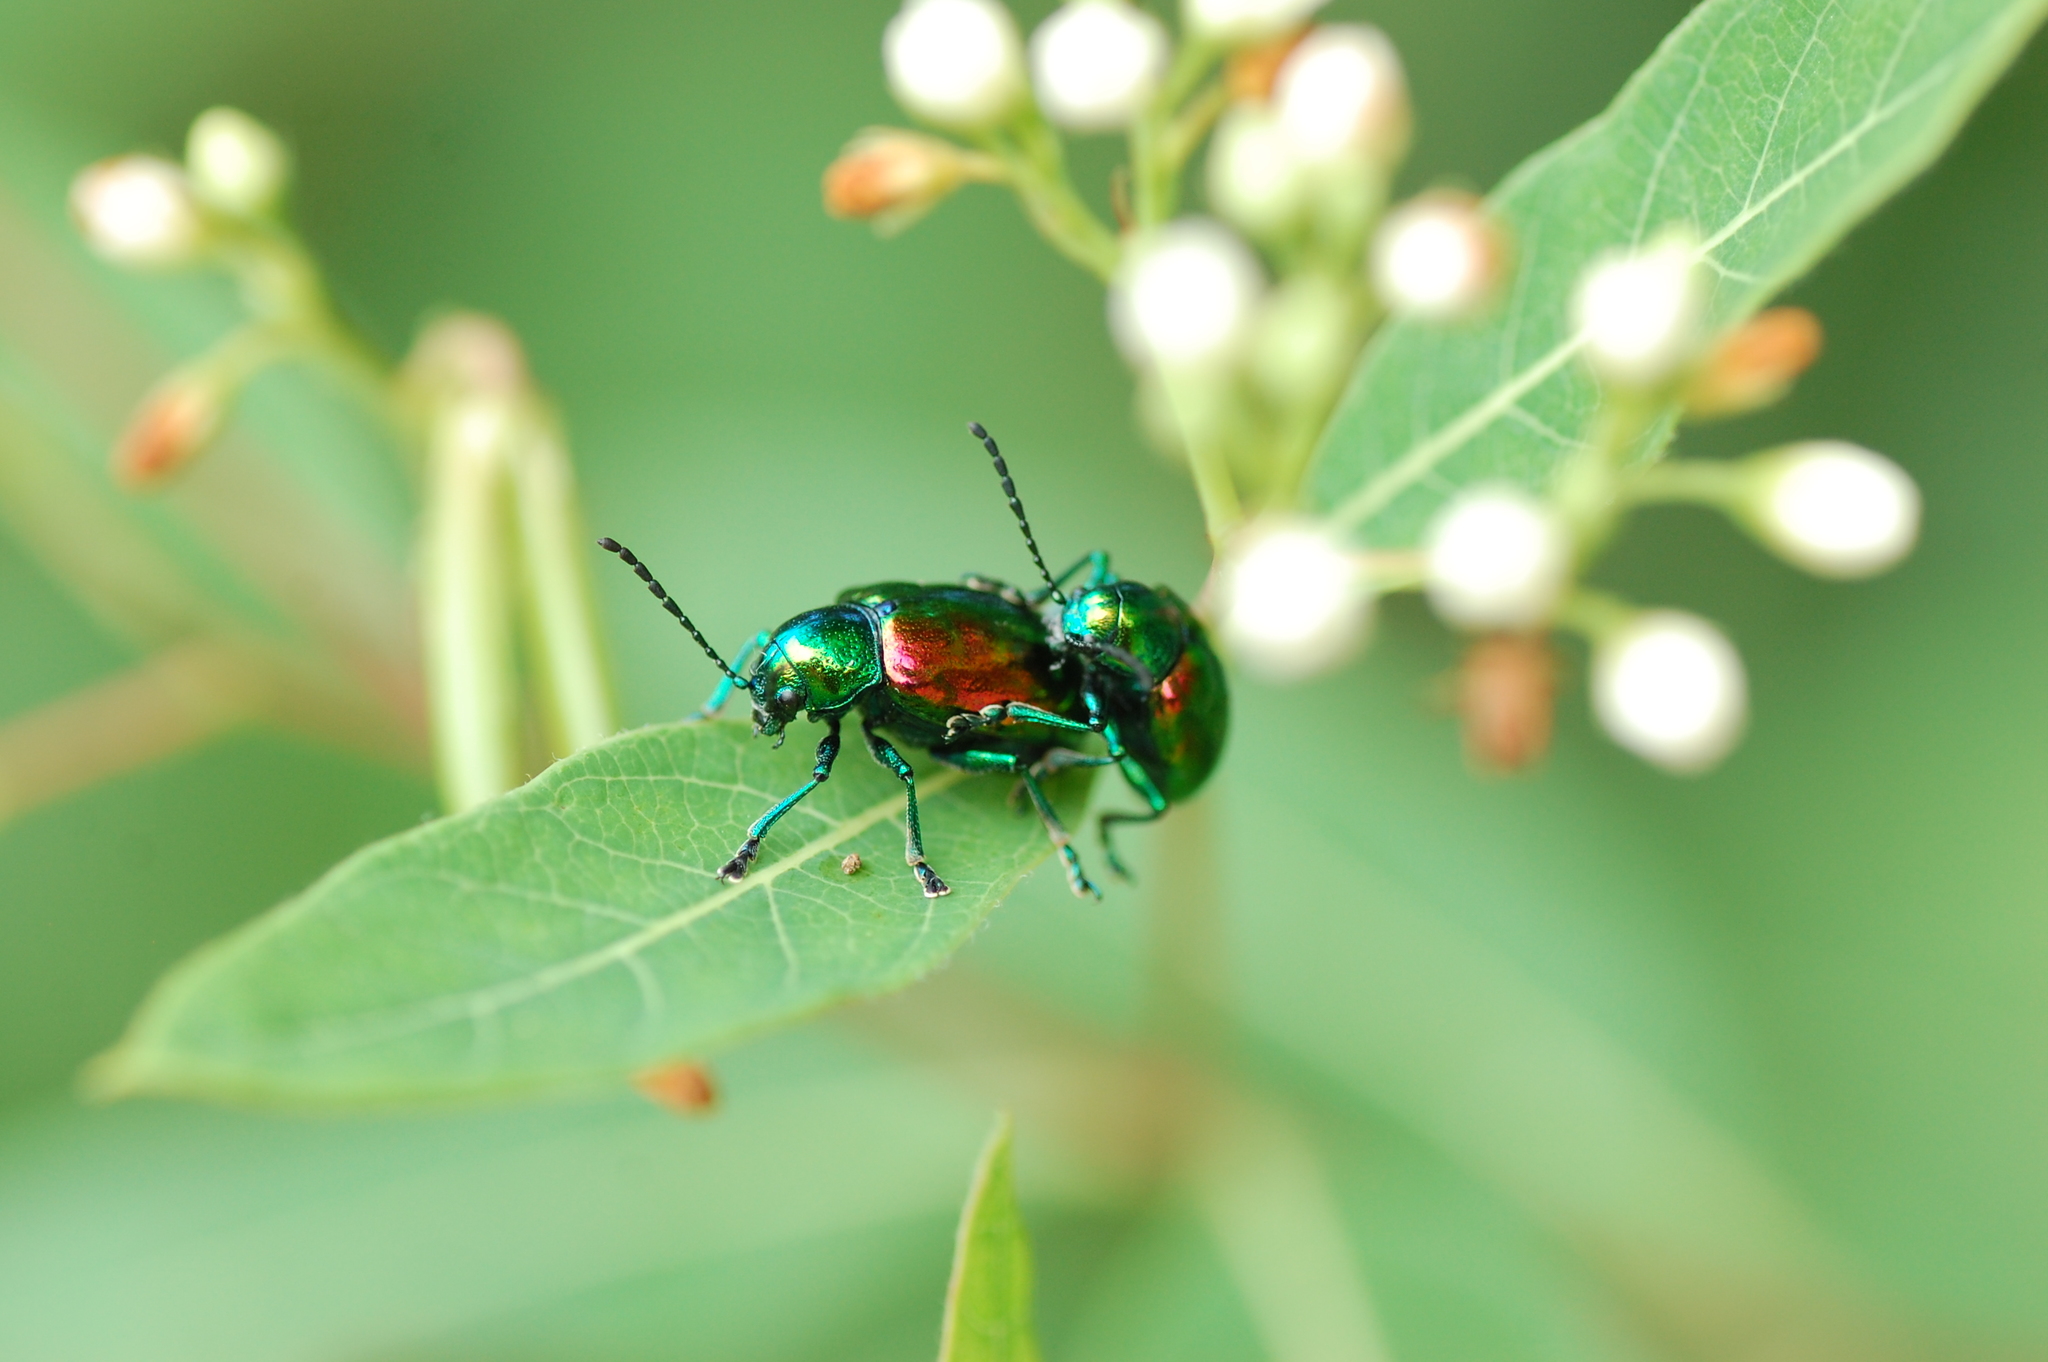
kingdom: Animalia
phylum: Arthropoda
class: Insecta
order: Coleoptera
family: Chrysomelidae
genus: Chrysochus
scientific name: Chrysochus auratus
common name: Dogbane leaf beetle
